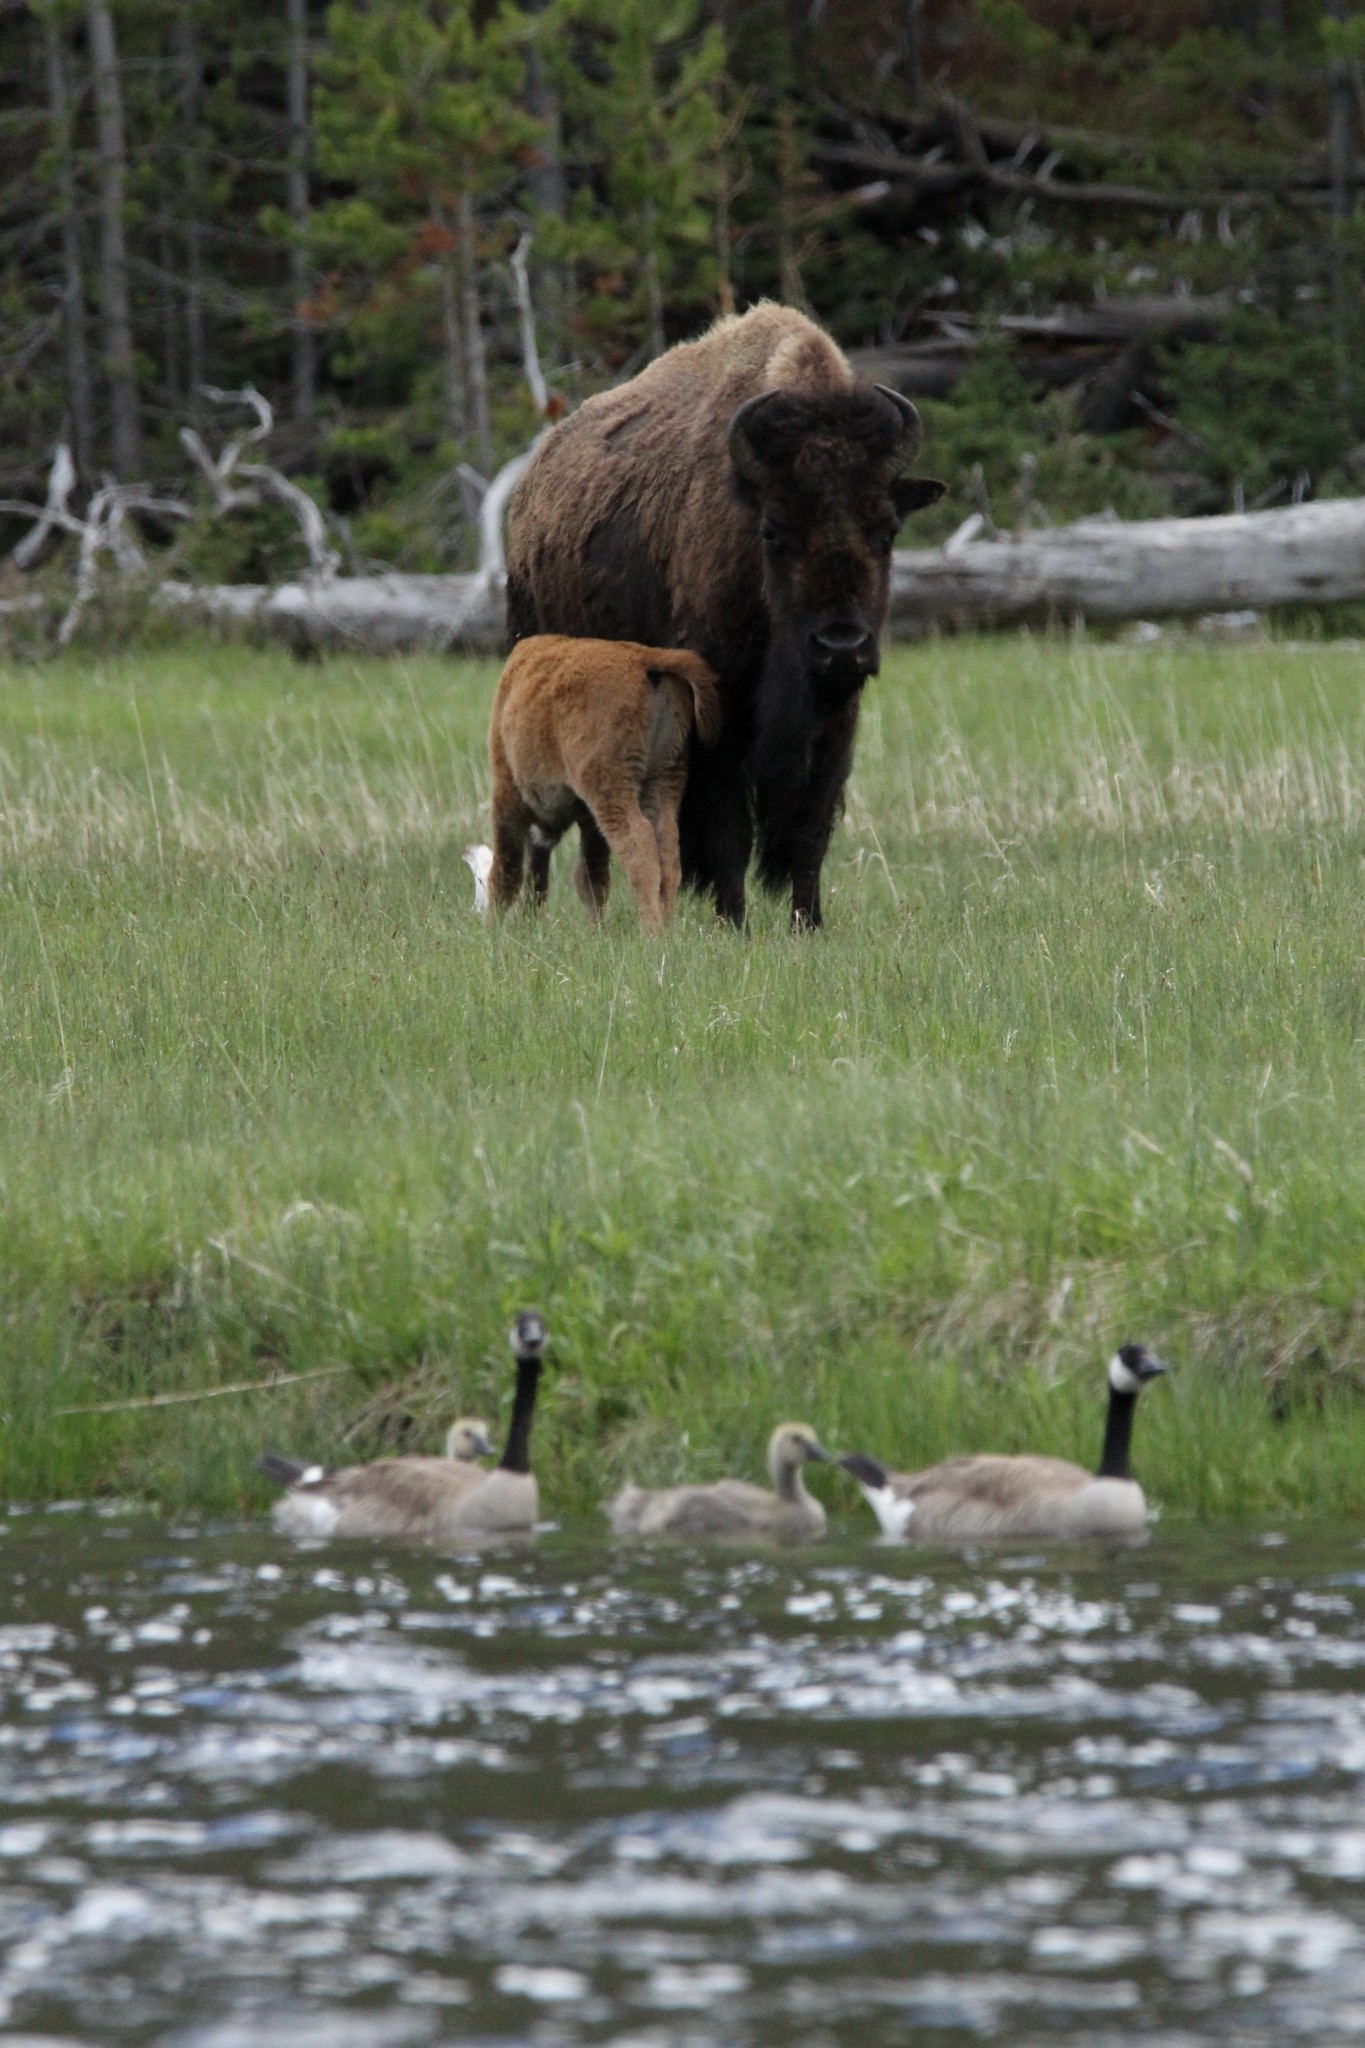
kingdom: Animalia
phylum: Chordata
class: Mammalia
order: Artiodactyla
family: Bovidae
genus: Bison
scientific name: Bison bison
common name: American bison
